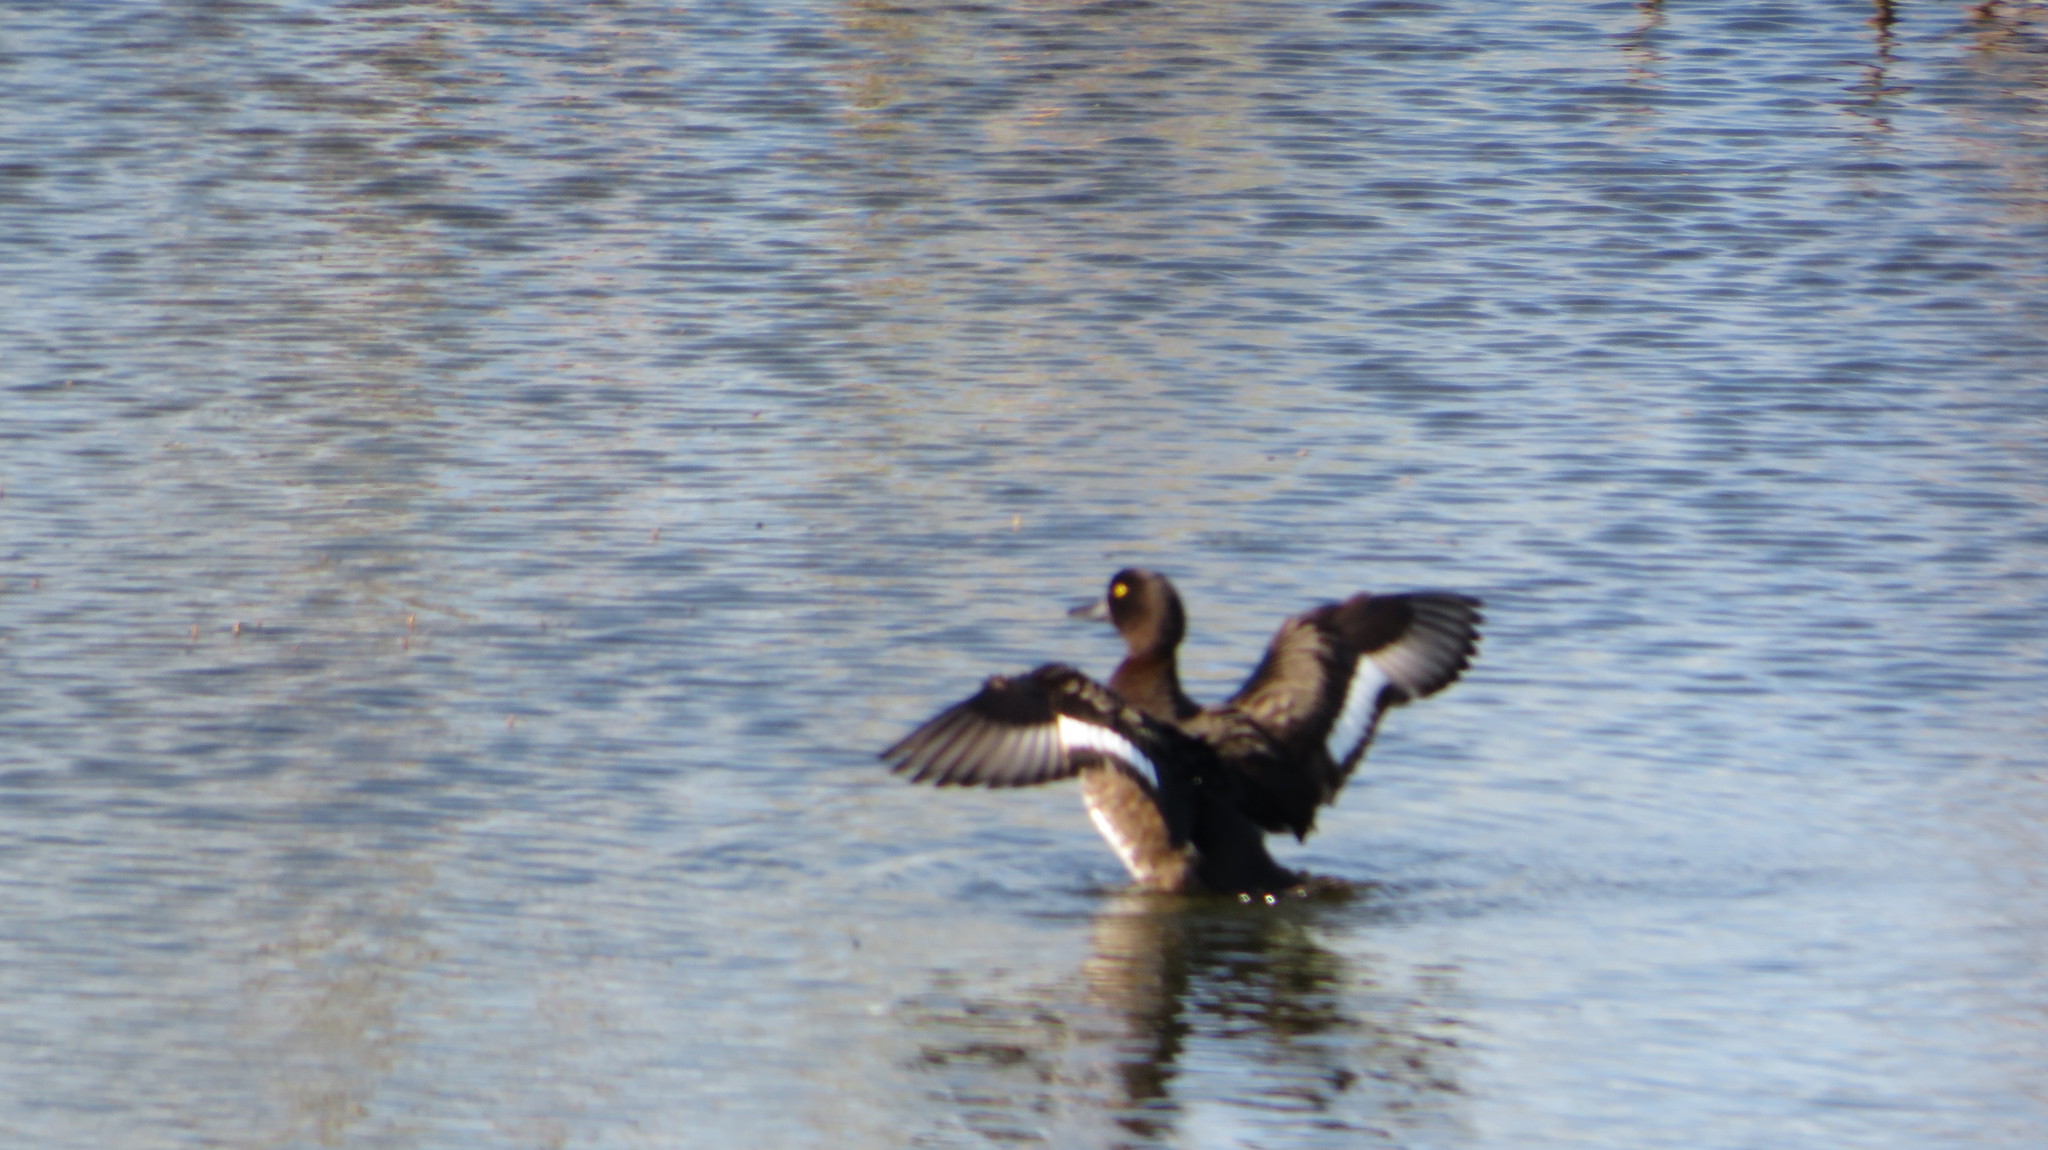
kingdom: Animalia
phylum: Chordata
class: Aves
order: Anseriformes
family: Anatidae
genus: Aythya
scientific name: Aythya fuligula
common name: Tufted duck
